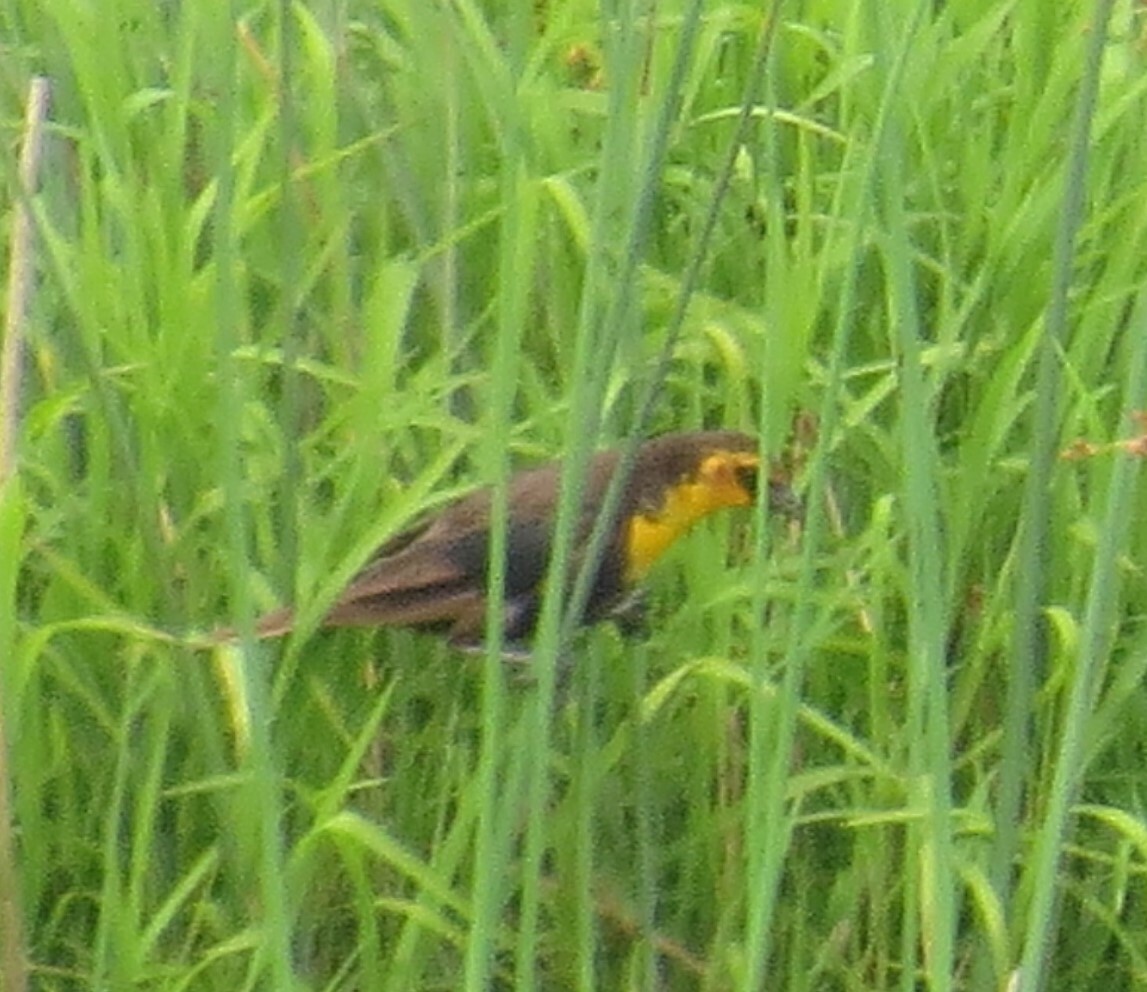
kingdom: Animalia
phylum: Chordata
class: Aves
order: Passeriformes
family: Icteridae
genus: Xanthocephalus
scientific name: Xanthocephalus xanthocephalus
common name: Yellow-headed blackbird
